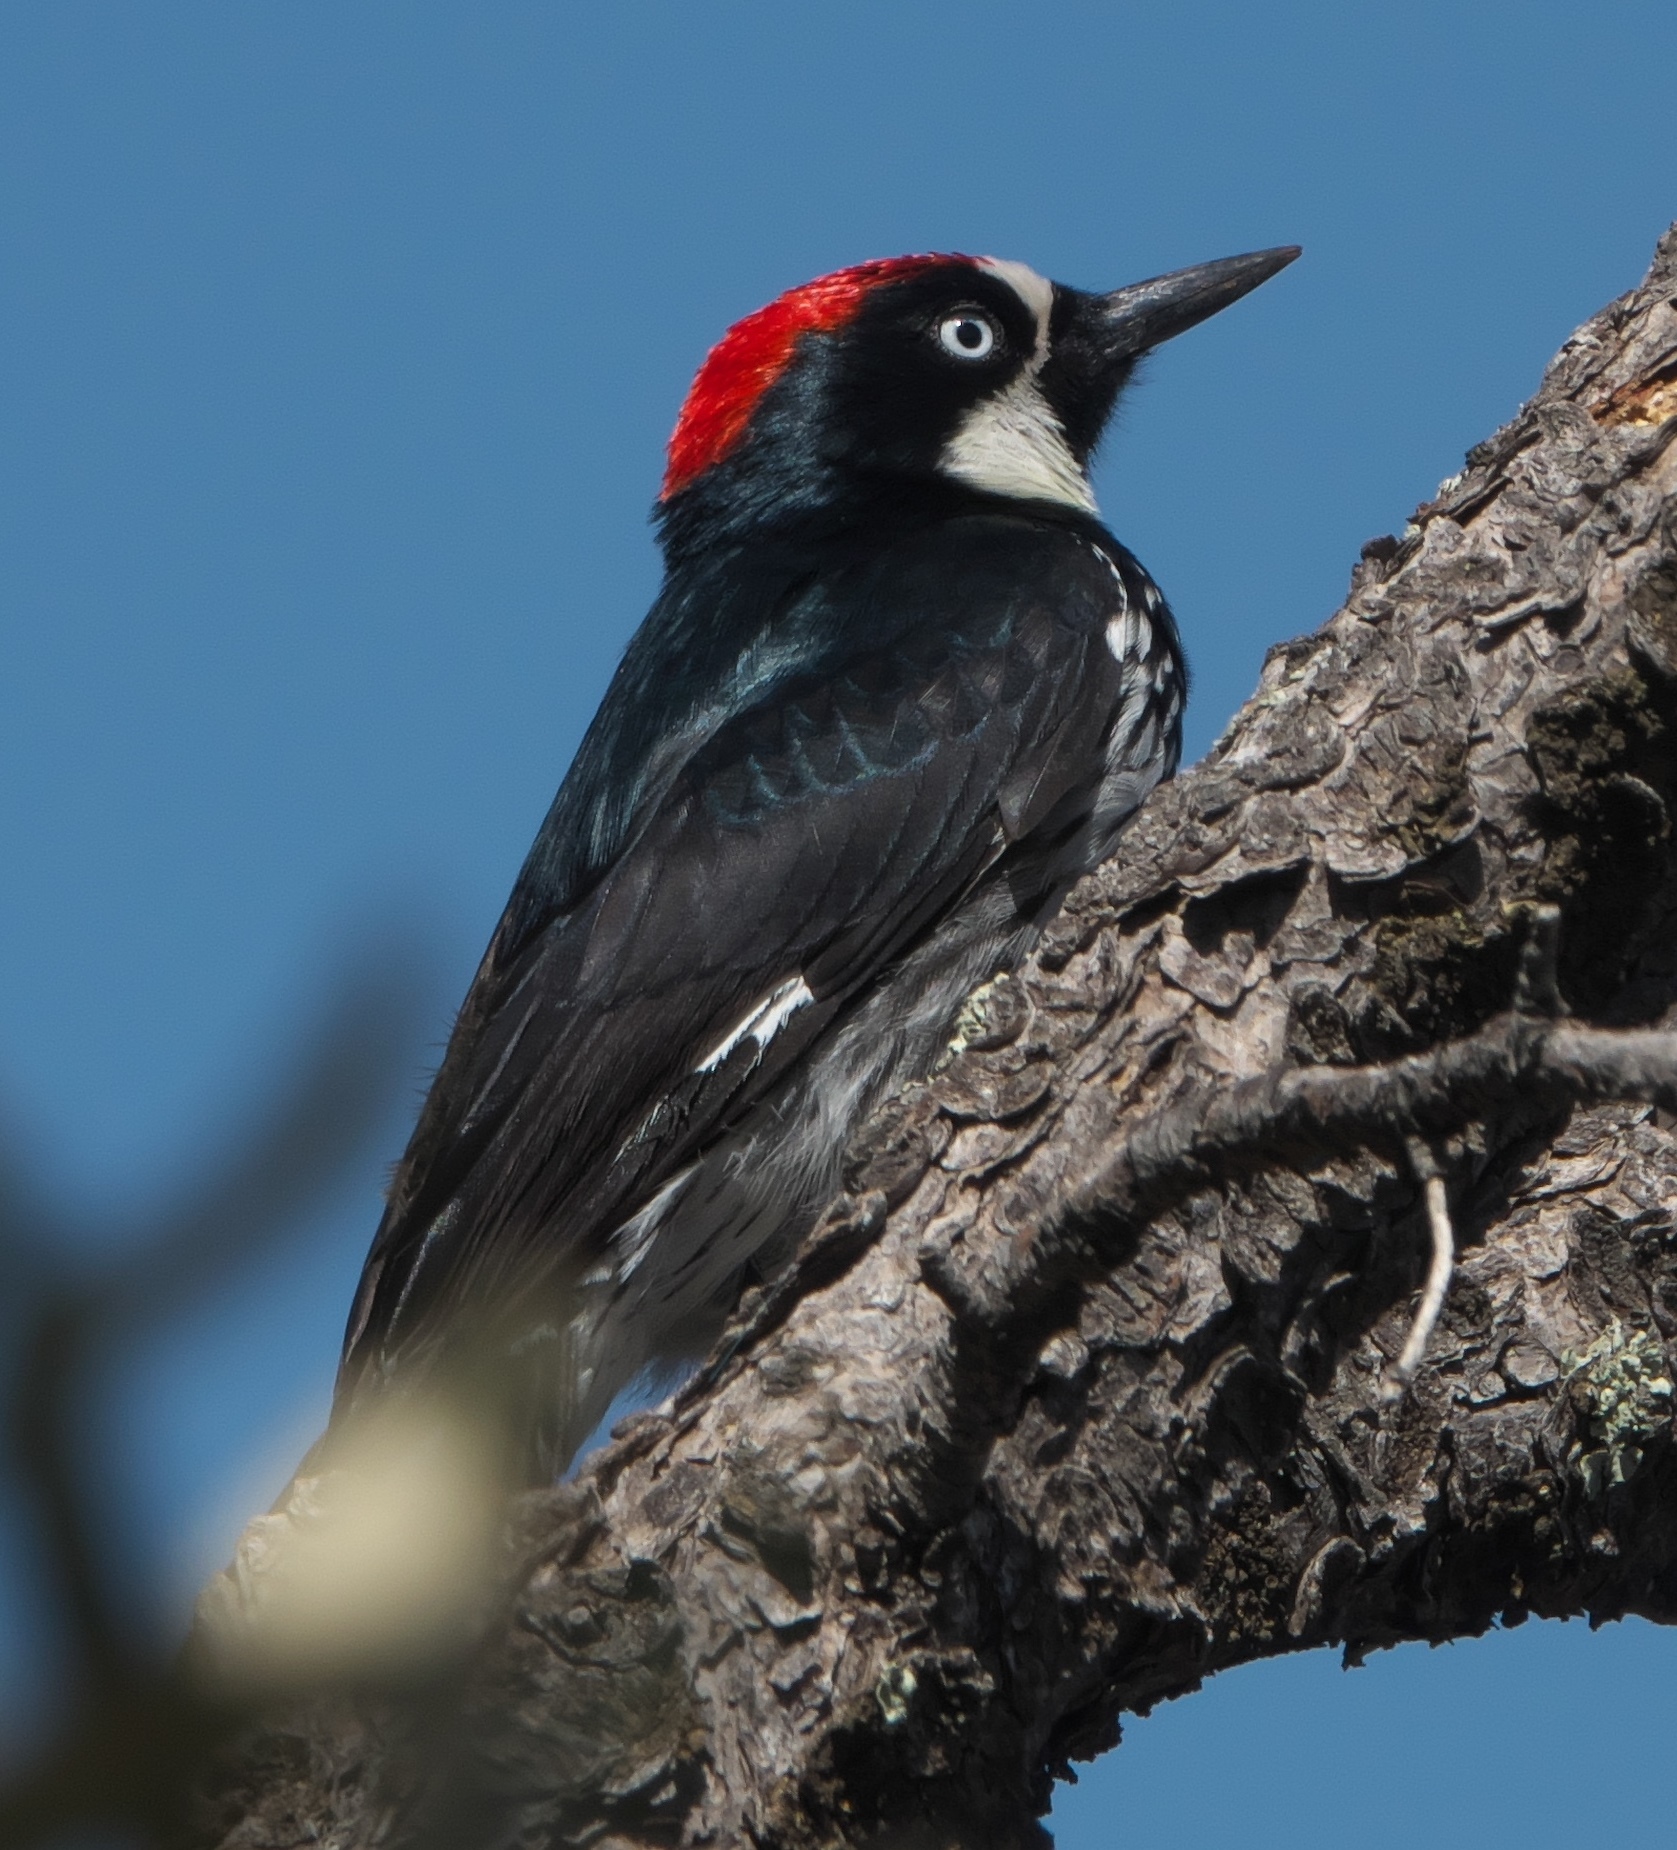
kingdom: Animalia
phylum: Chordata
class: Aves
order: Piciformes
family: Picidae
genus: Melanerpes
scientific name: Melanerpes formicivorus
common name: Acorn woodpecker
